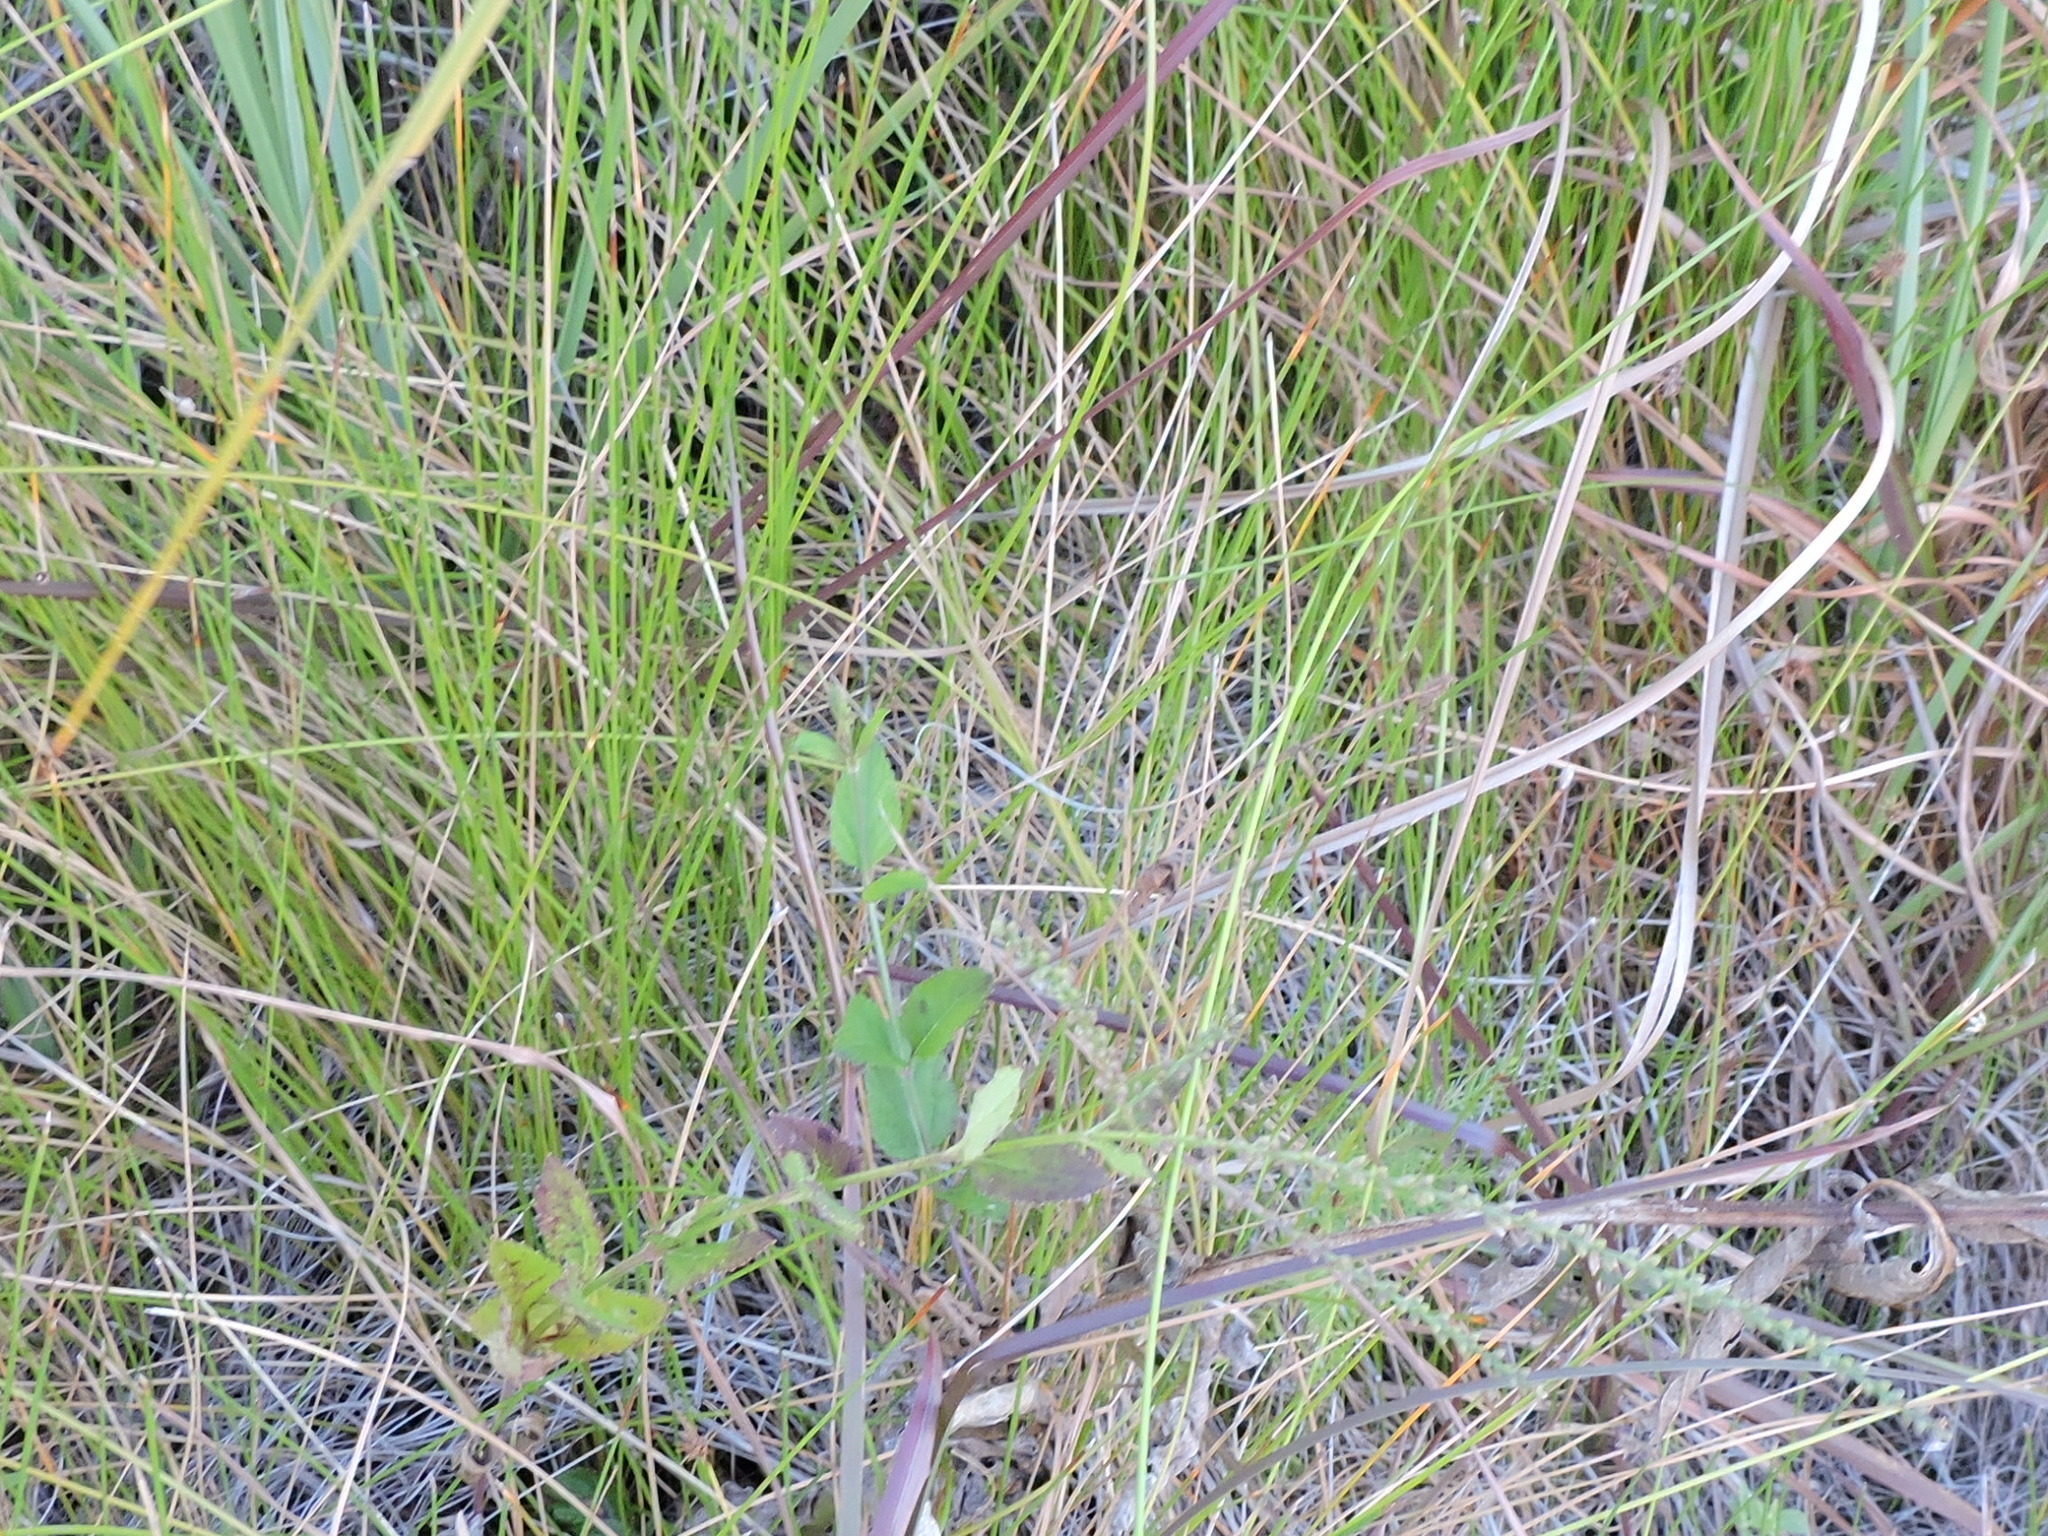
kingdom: Plantae
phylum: Tracheophyta
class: Magnoliopsida
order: Lamiales
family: Verbenaceae
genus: Verbena
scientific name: Verbena scabra
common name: Sandpaper vervain
